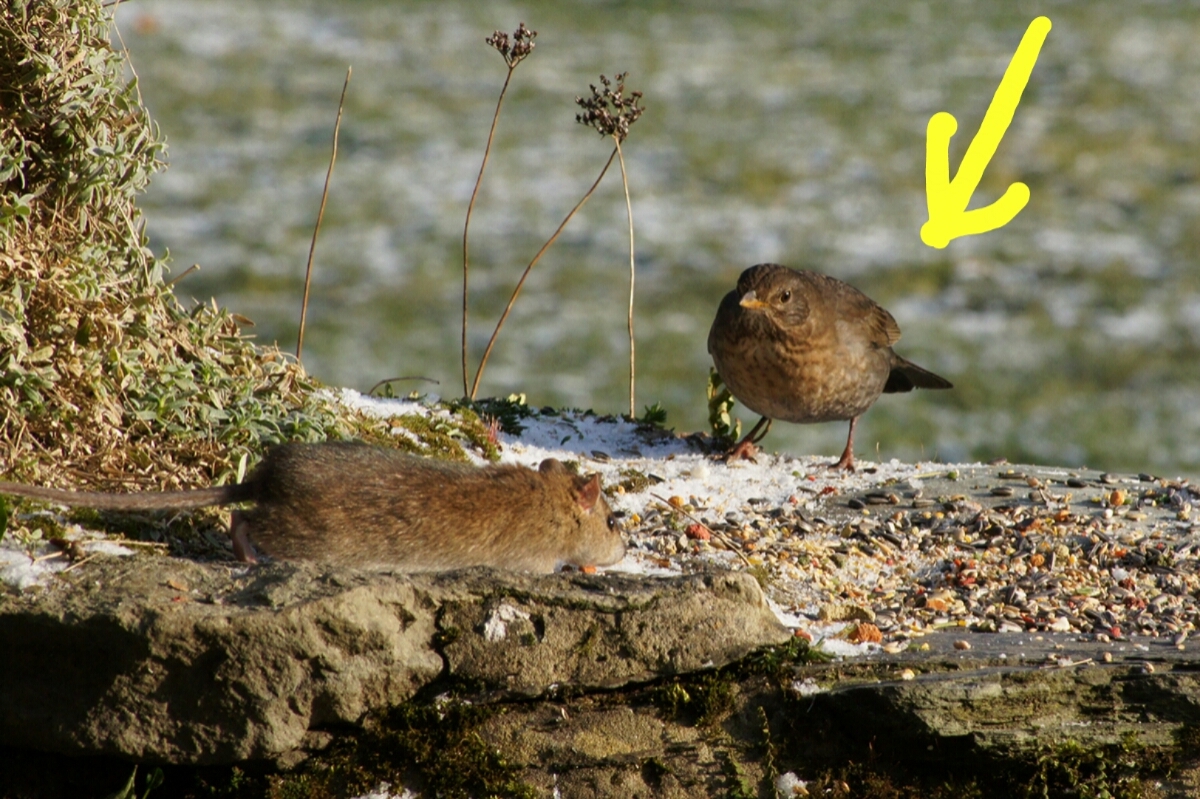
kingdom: Animalia
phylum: Chordata
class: Aves
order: Passeriformes
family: Turdidae
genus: Turdus
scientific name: Turdus merula
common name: Common blackbird
